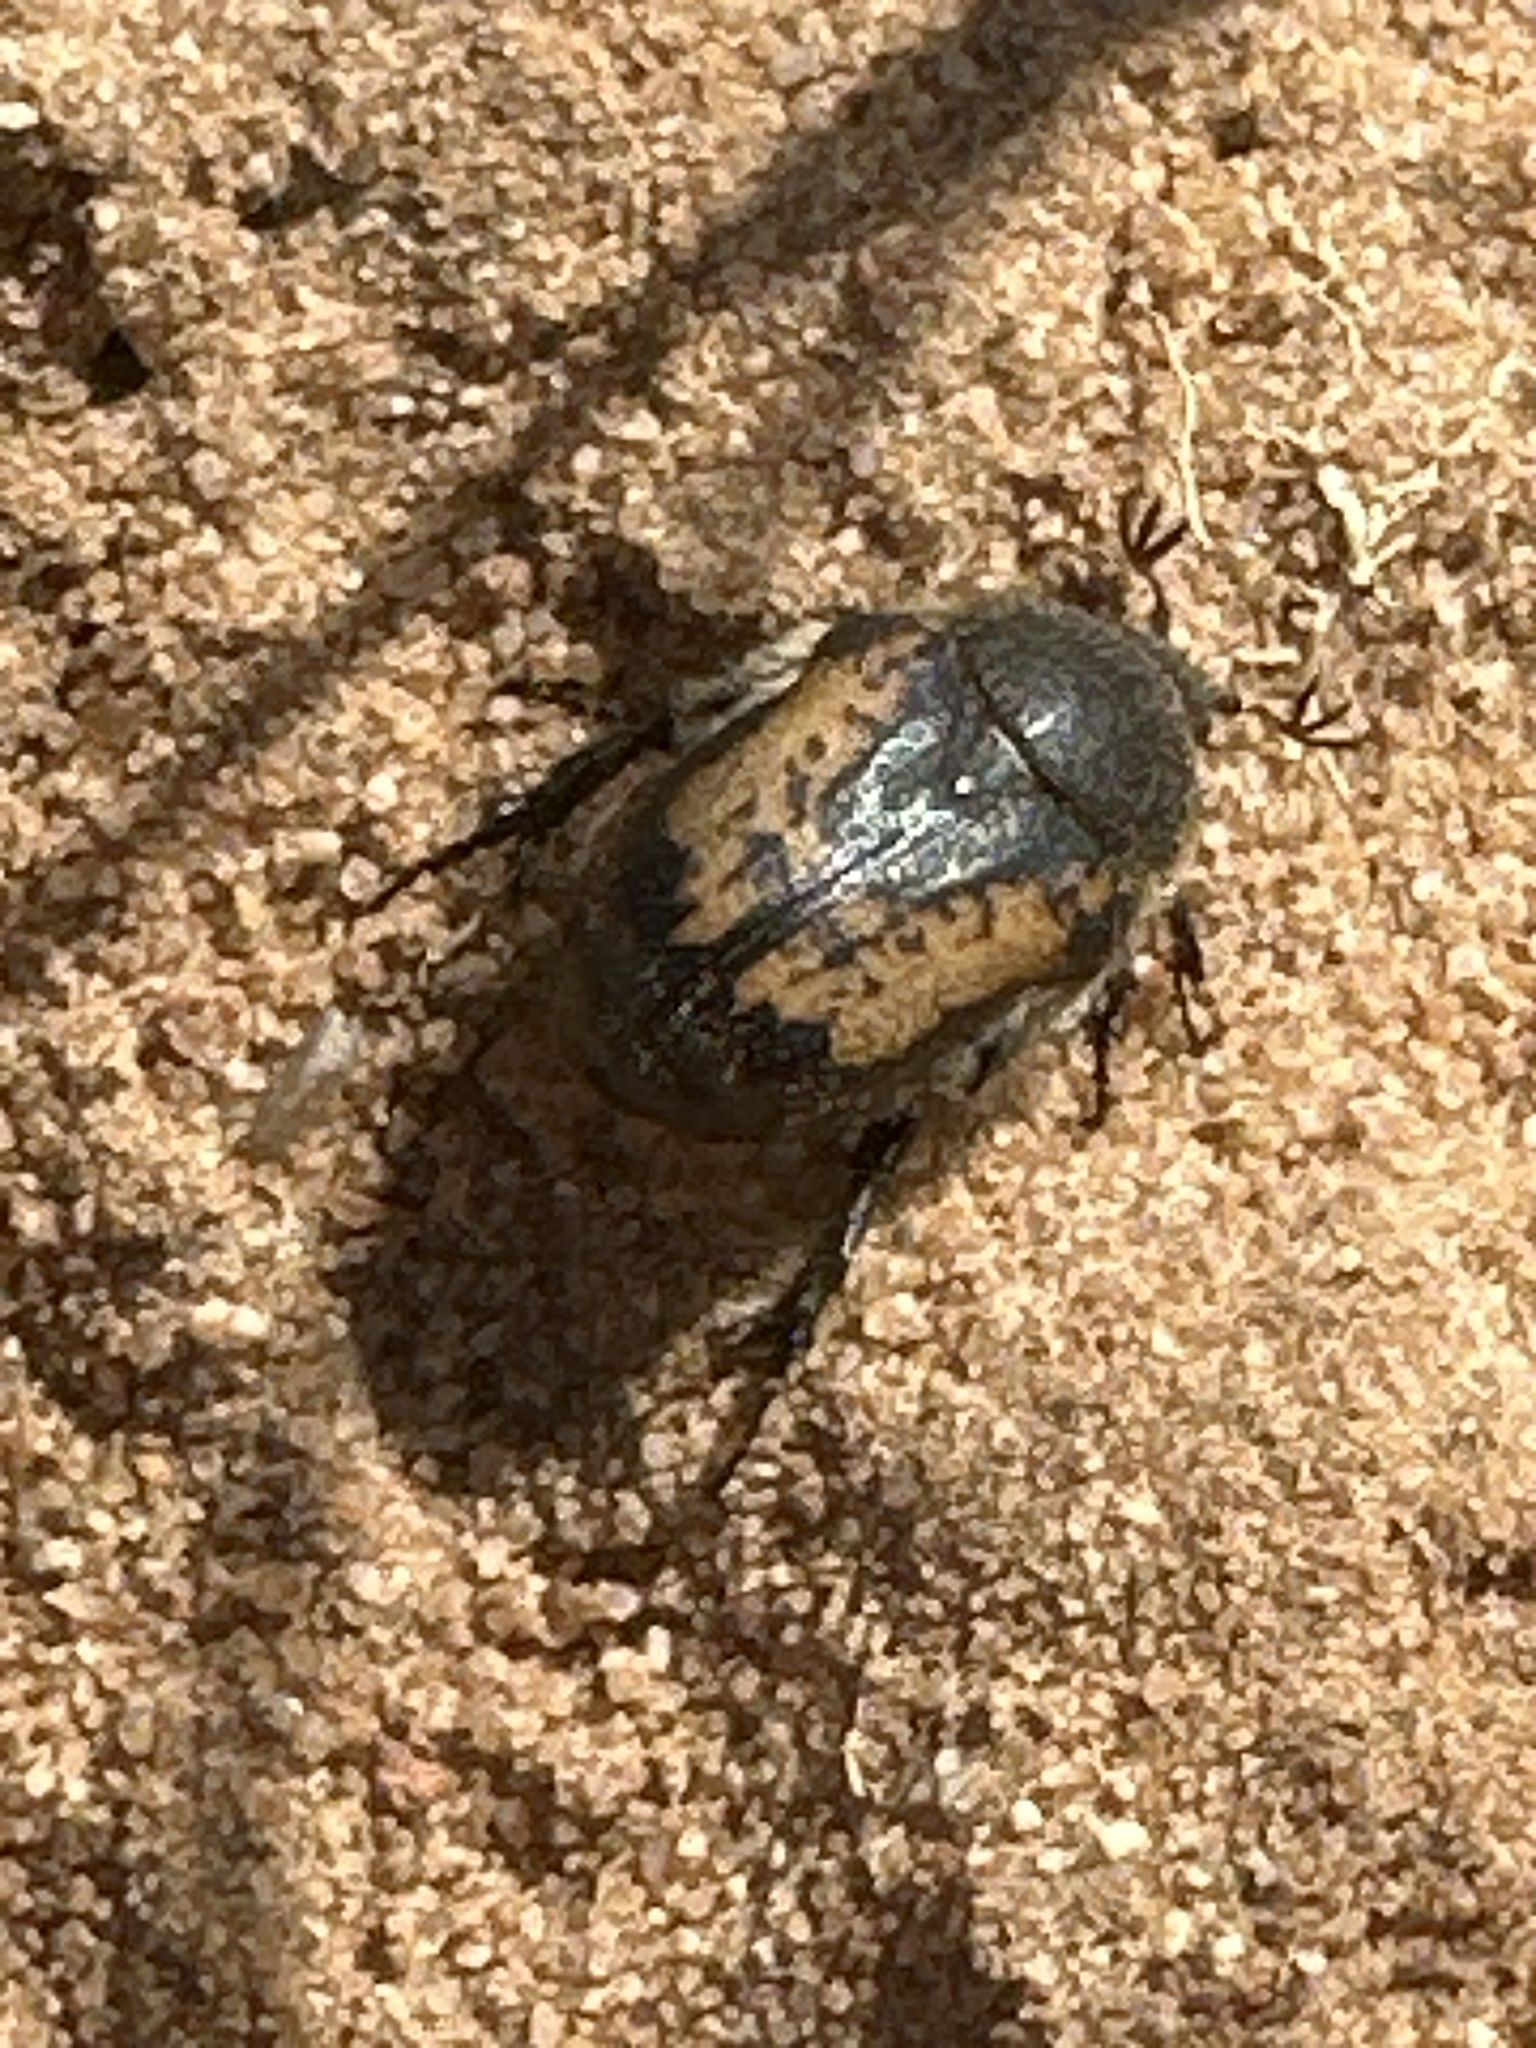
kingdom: Animalia
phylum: Arthropoda
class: Insecta
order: Coleoptera
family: Scarabaeidae
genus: Euphoria
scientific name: Euphoria pilipennis
